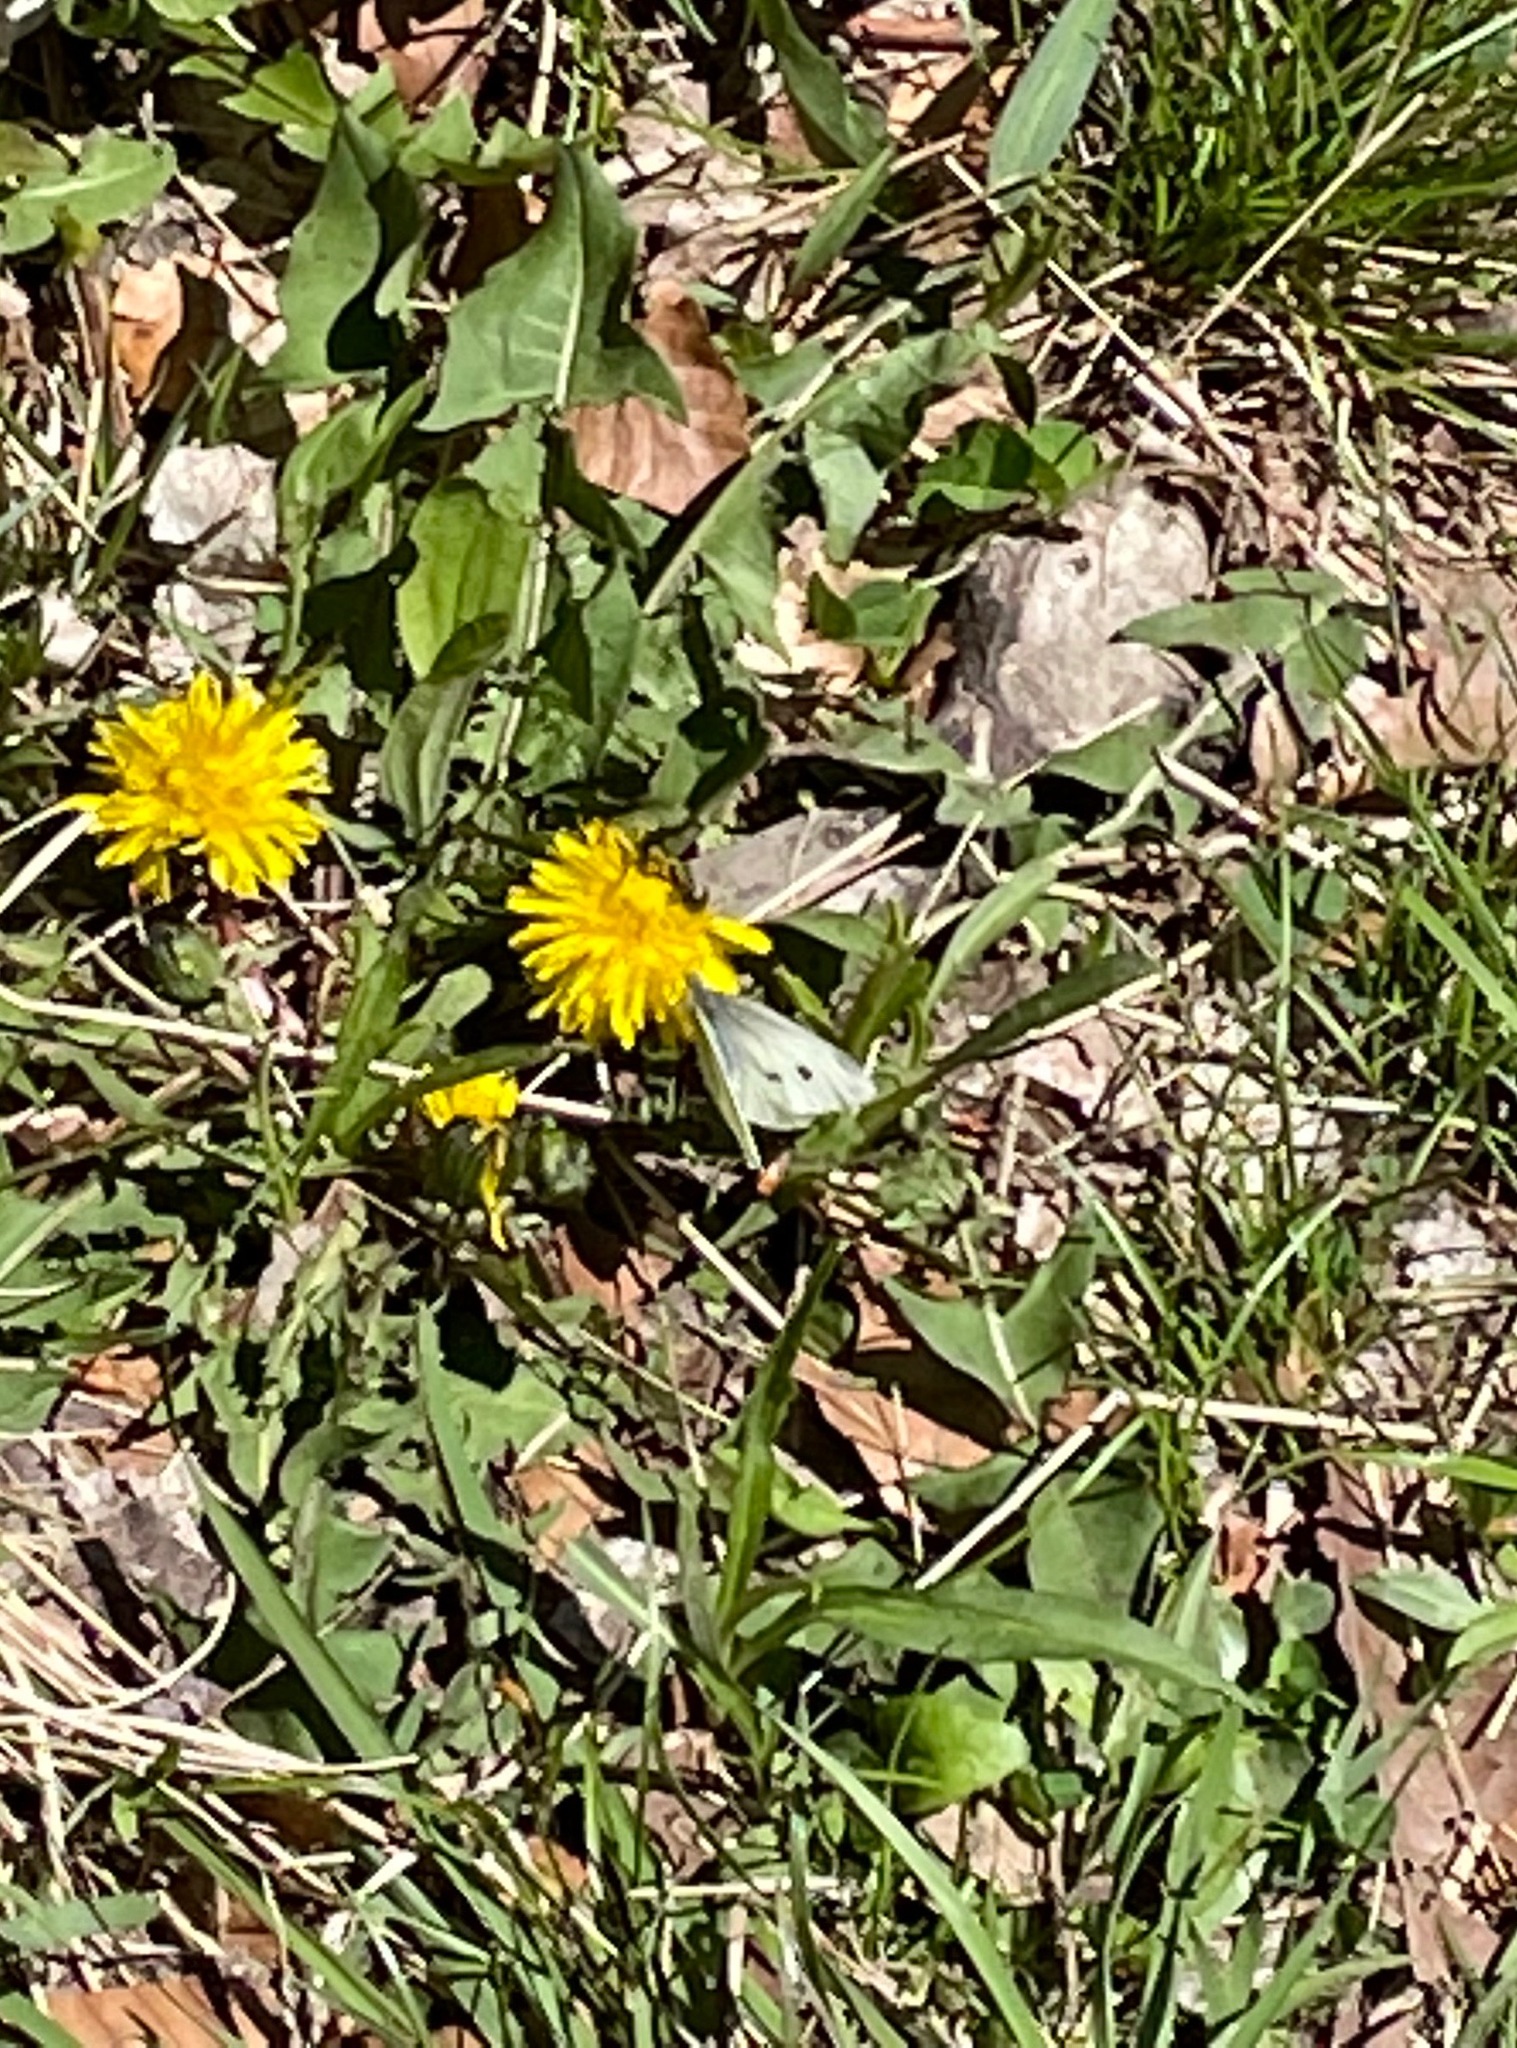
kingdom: Animalia
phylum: Arthropoda
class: Insecta
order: Lepidoptera
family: Pieridae
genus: Pieris
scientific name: Pieris rapae
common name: Small white
